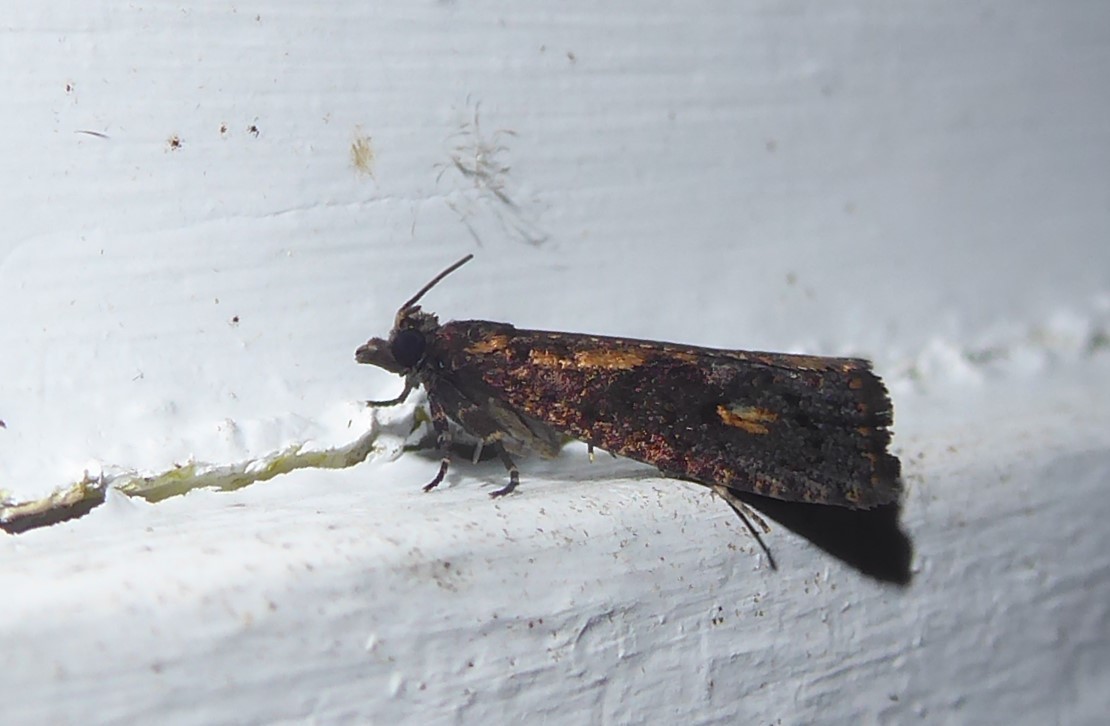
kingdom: Animalia
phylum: Arthropoda
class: Insecta
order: Lepidoptera
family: Tortricidae
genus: Cryptaspasma
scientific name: Cryptaspasma querula
